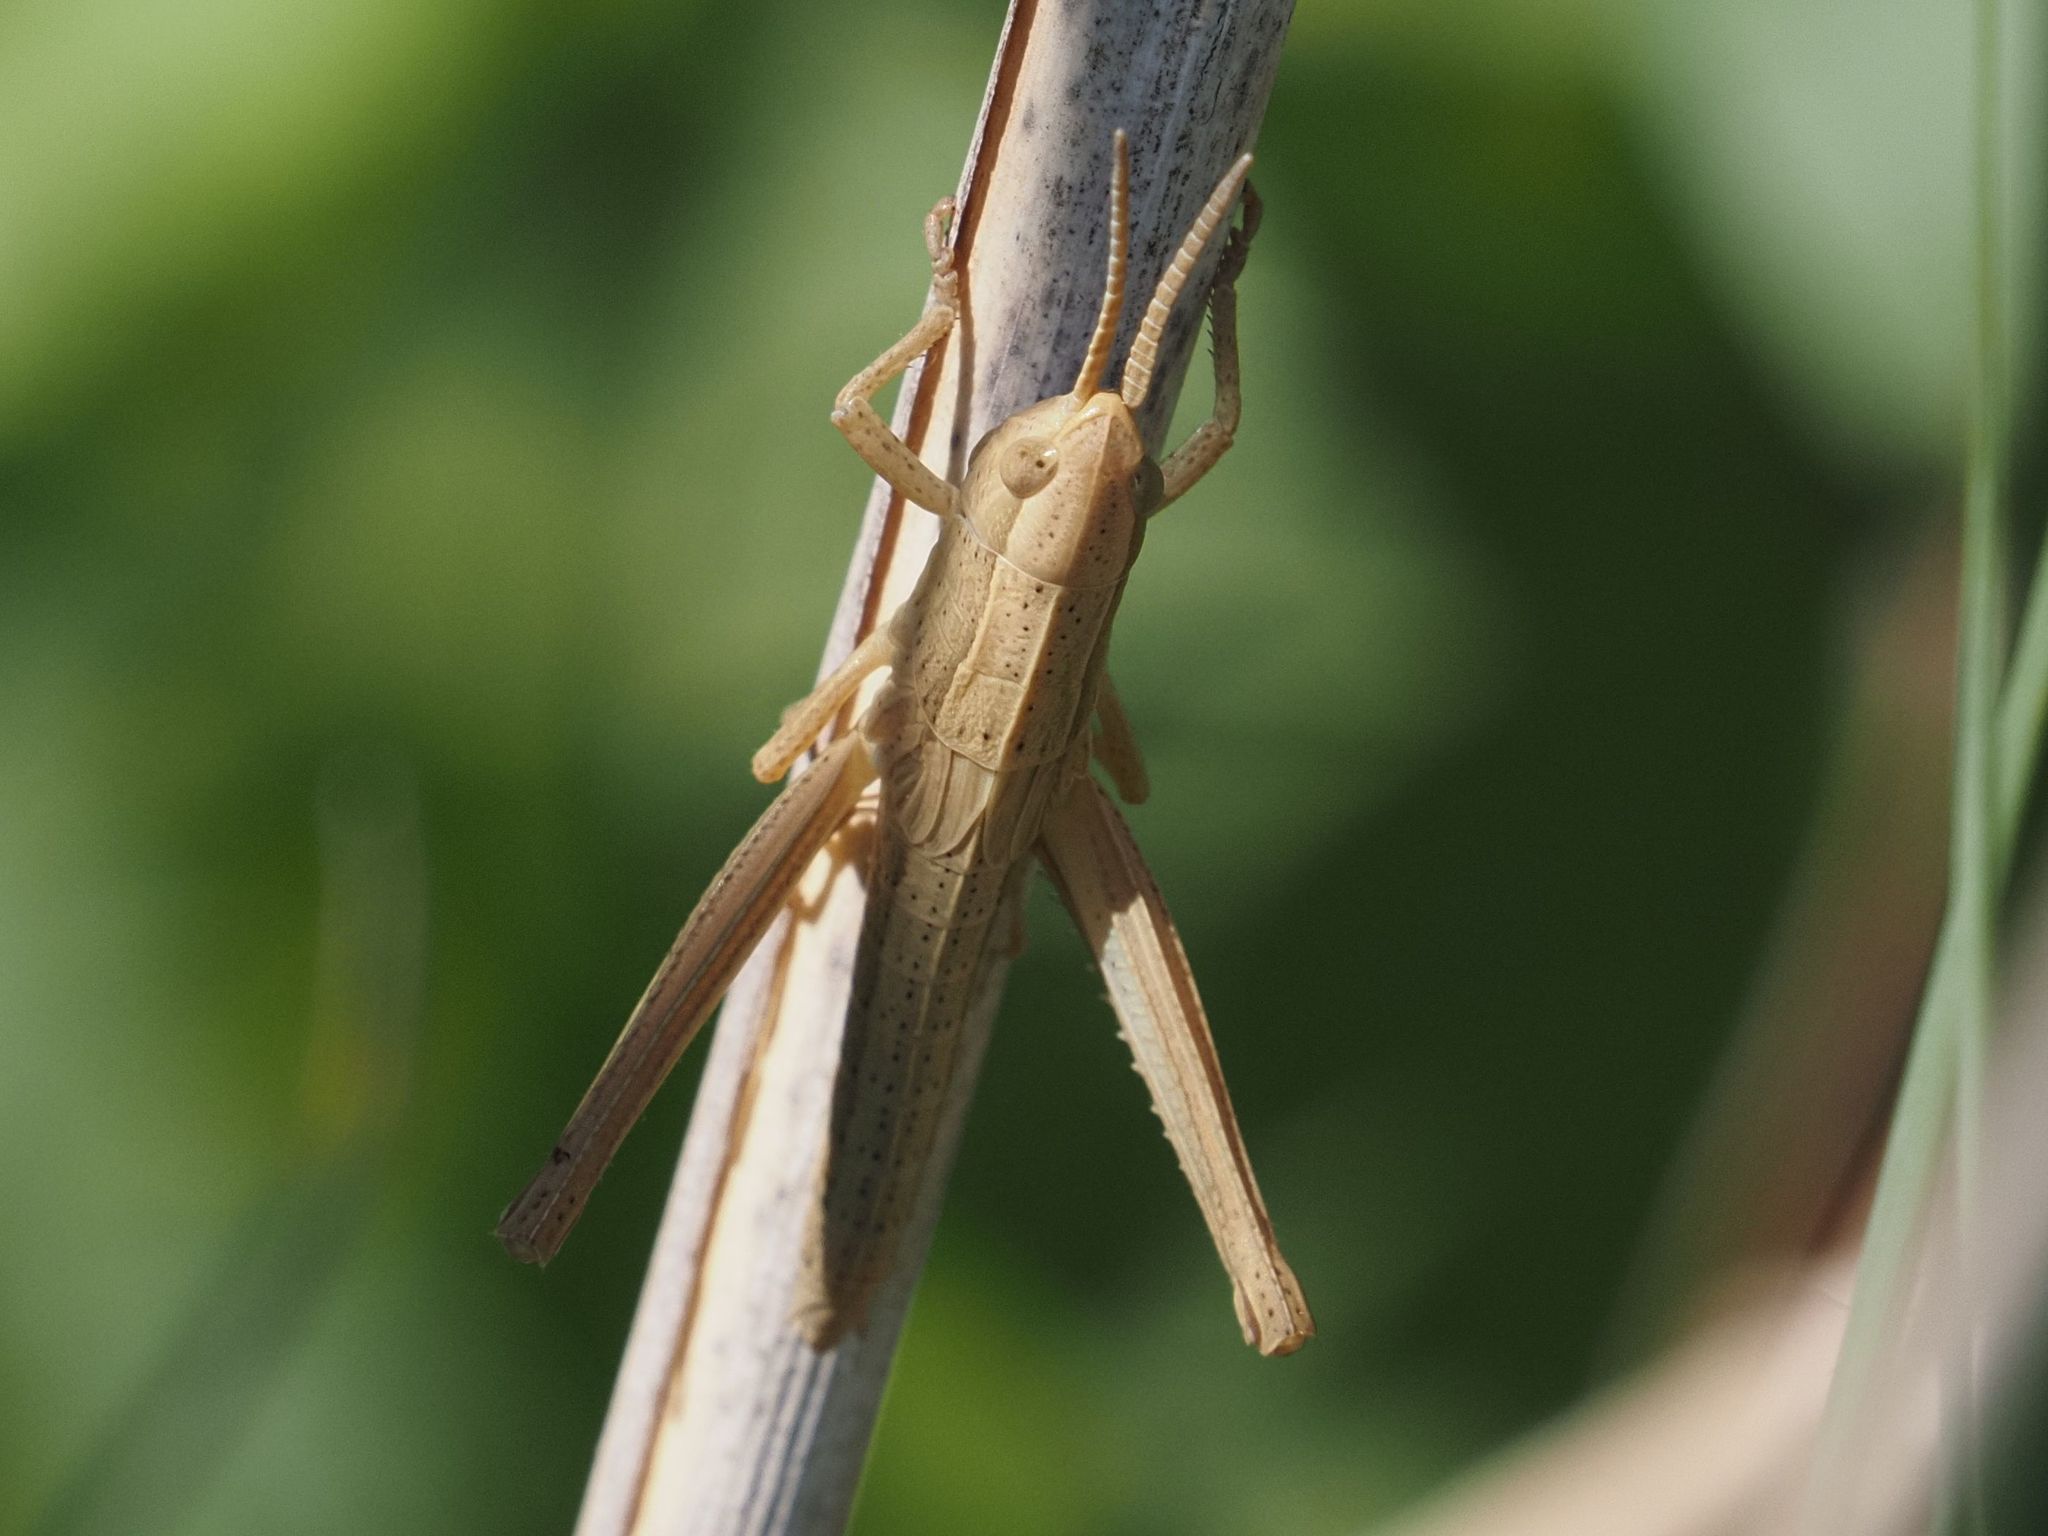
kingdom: Animalia
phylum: Arthropoda
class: Insecta
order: Orthoptera
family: Acrididae
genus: Chrysochraon
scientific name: Chrysochraon dispar
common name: Large gold grasshopper
